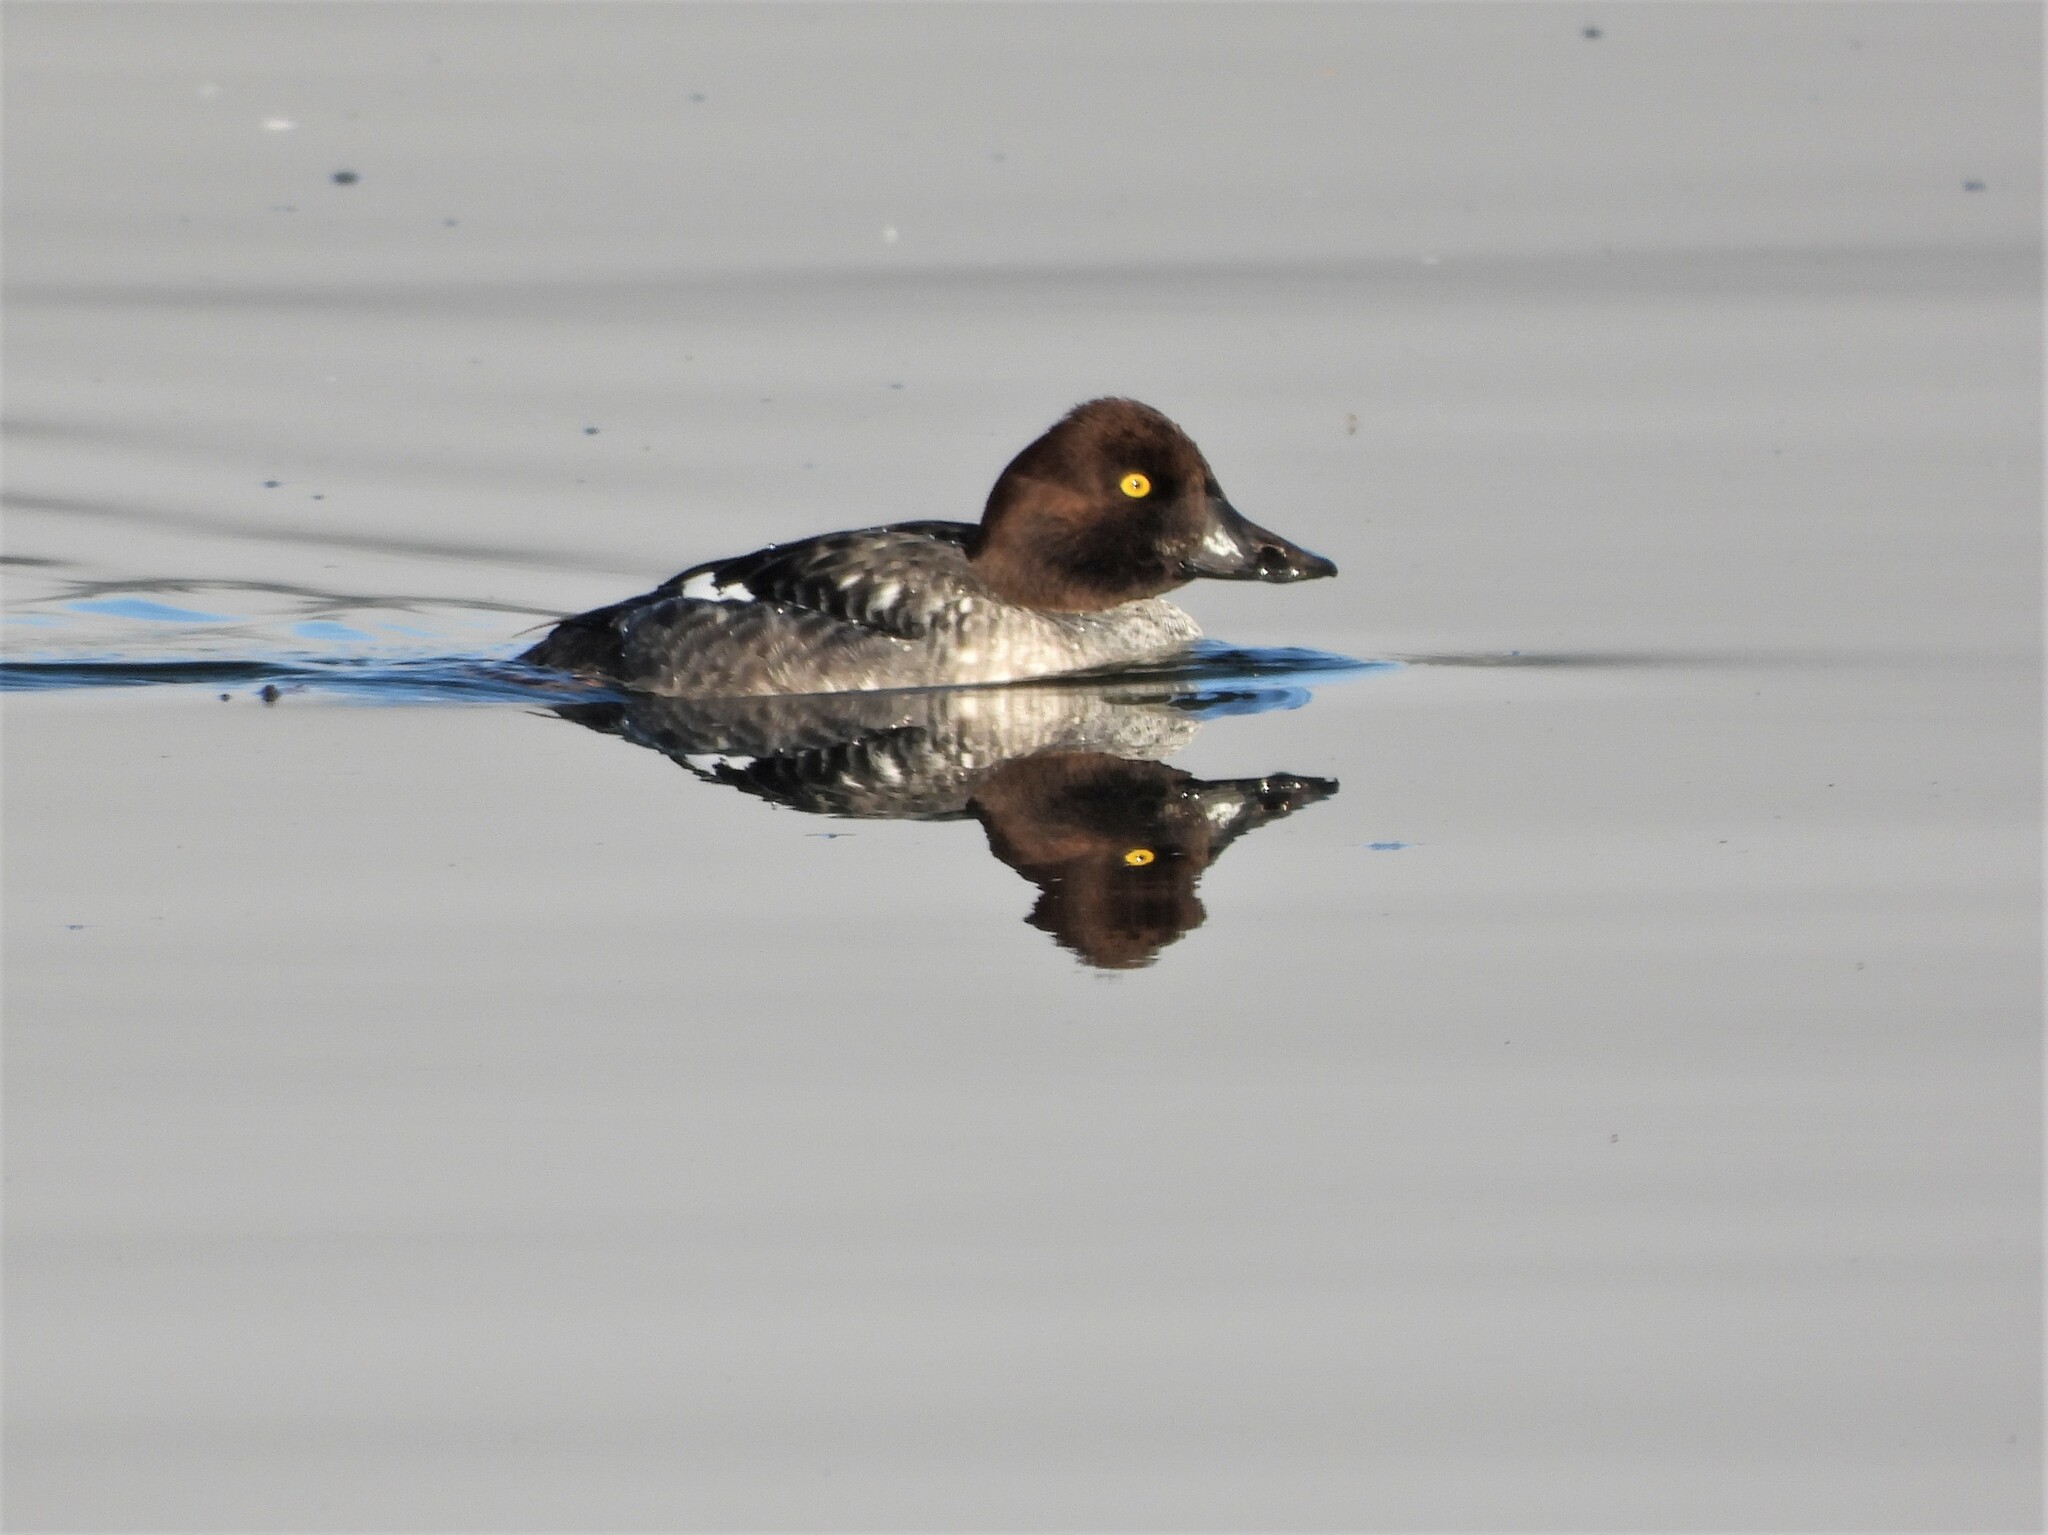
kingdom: Animalia
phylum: Chordata
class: Aves
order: Anseriformes
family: Anatidae
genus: Bucephala
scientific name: Bucephala clangula
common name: Common goldeneye
